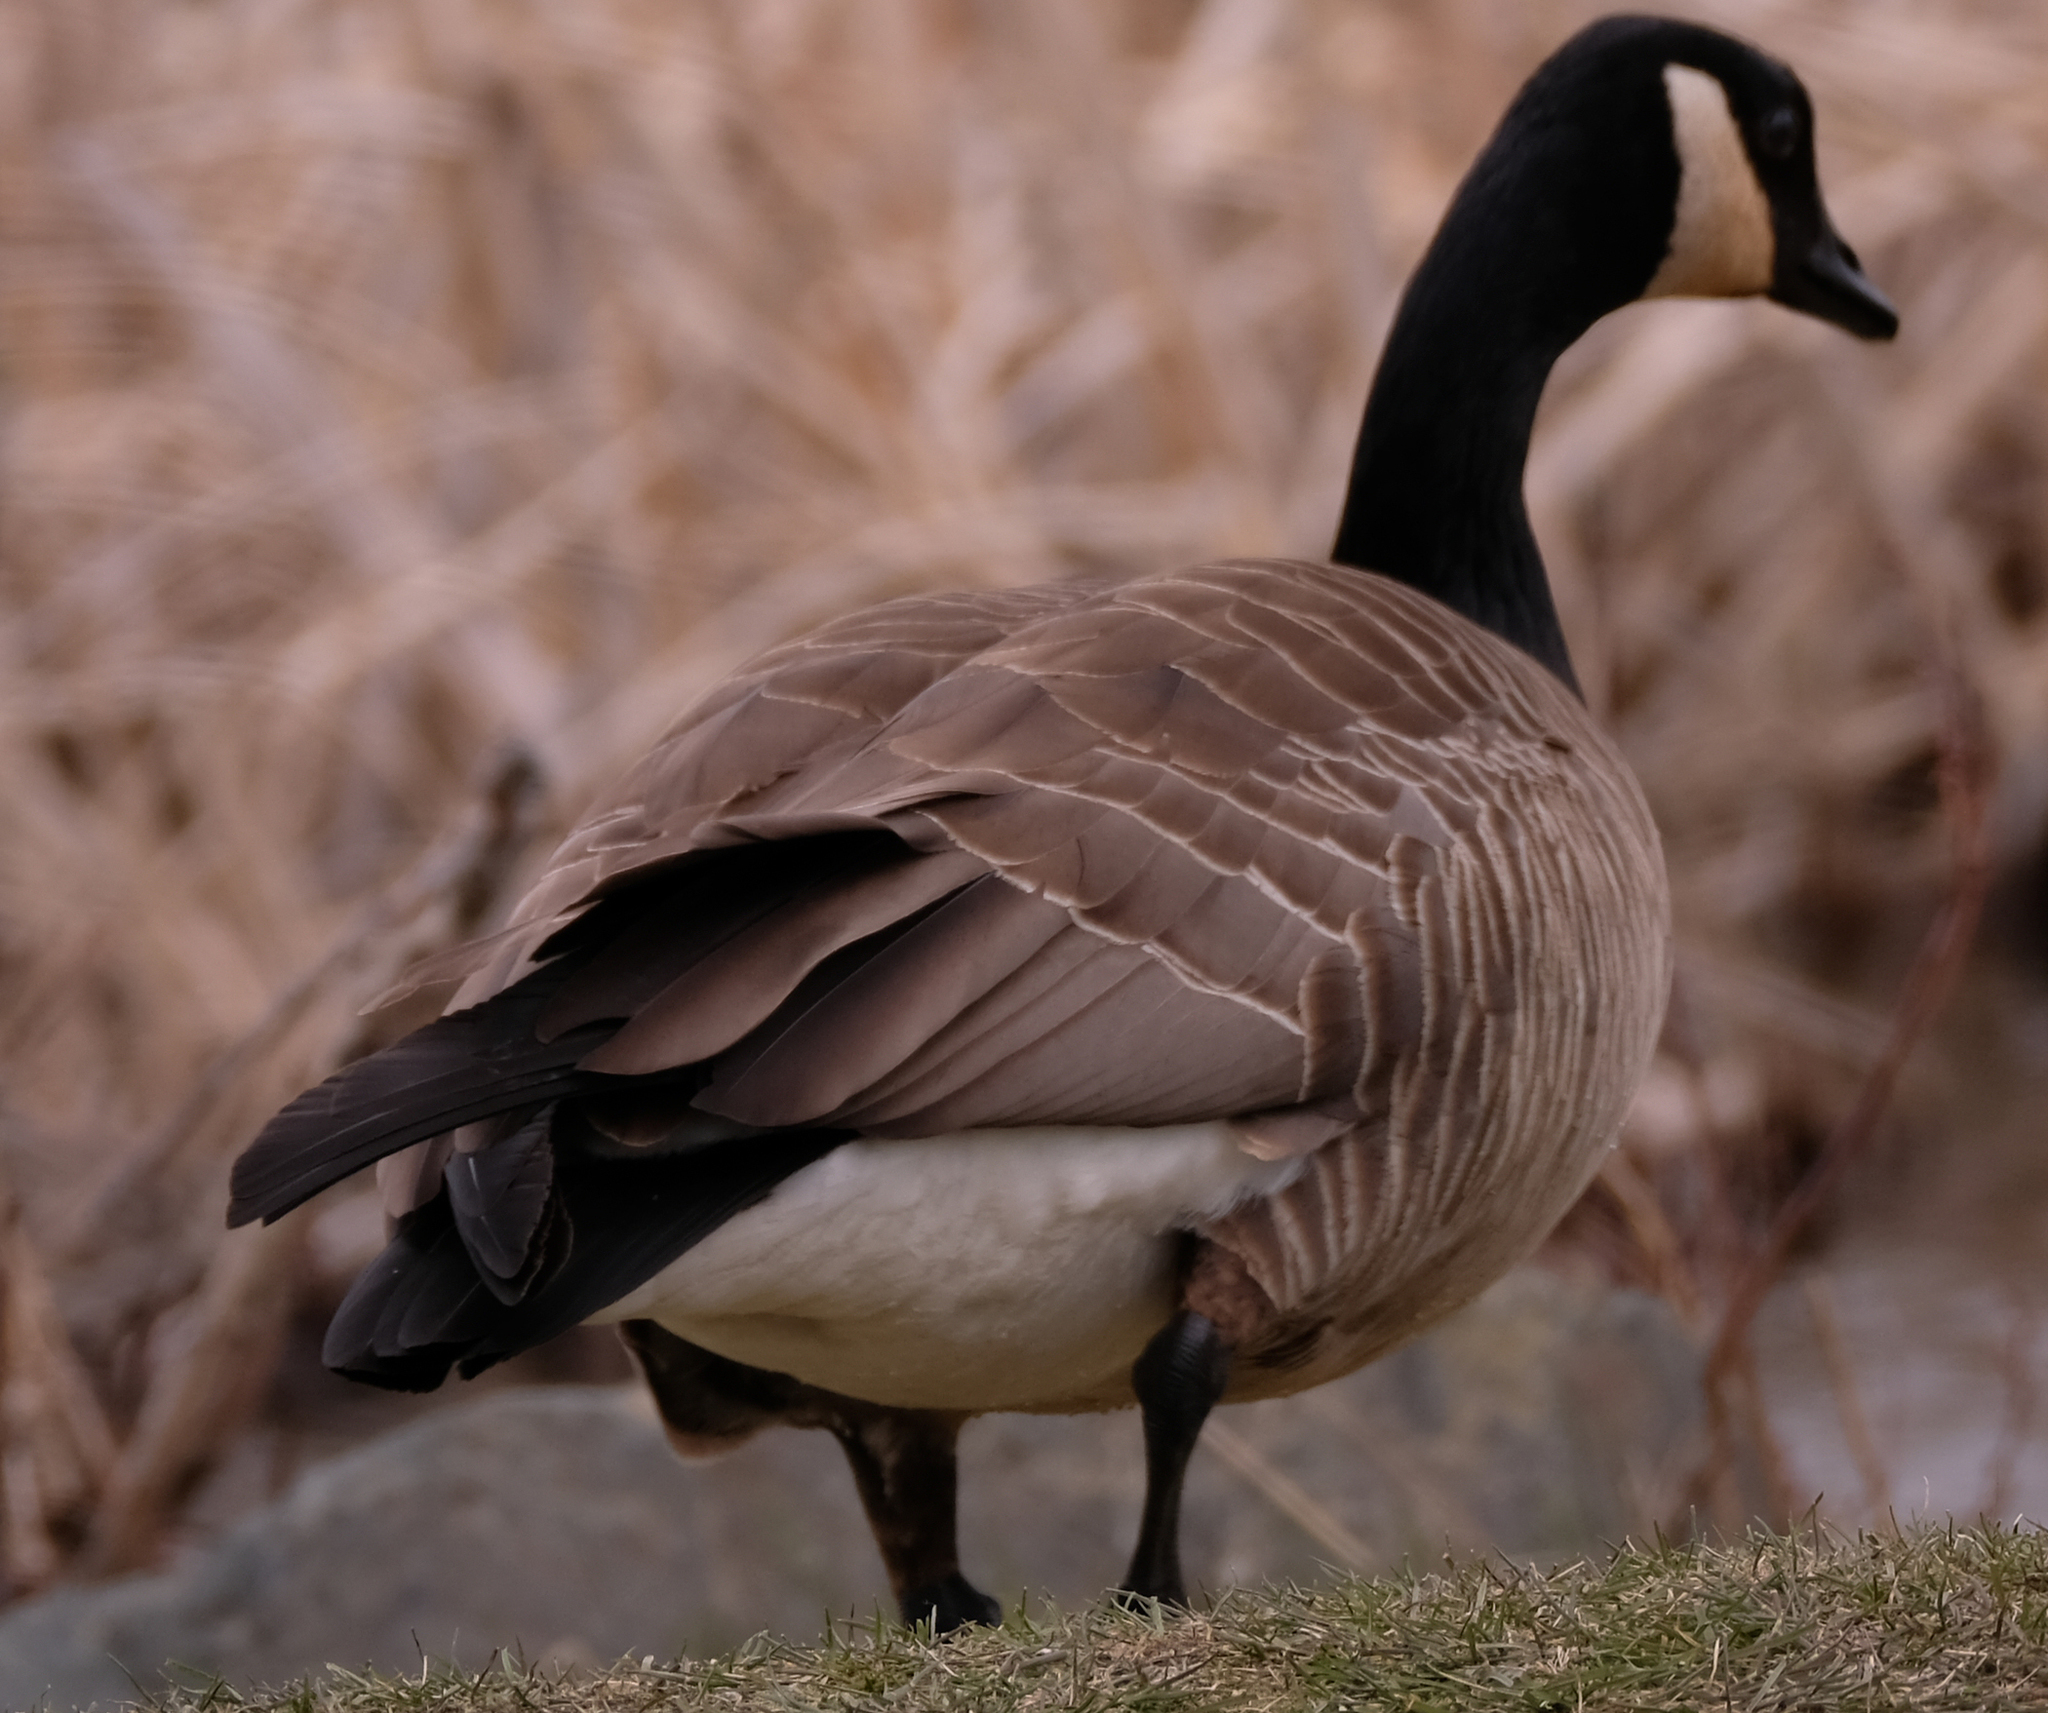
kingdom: Animalia
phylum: Chordata
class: Aves
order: Anseriformes
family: Anatidae
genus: Branta
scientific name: Branta canadensis
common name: Canada goose
